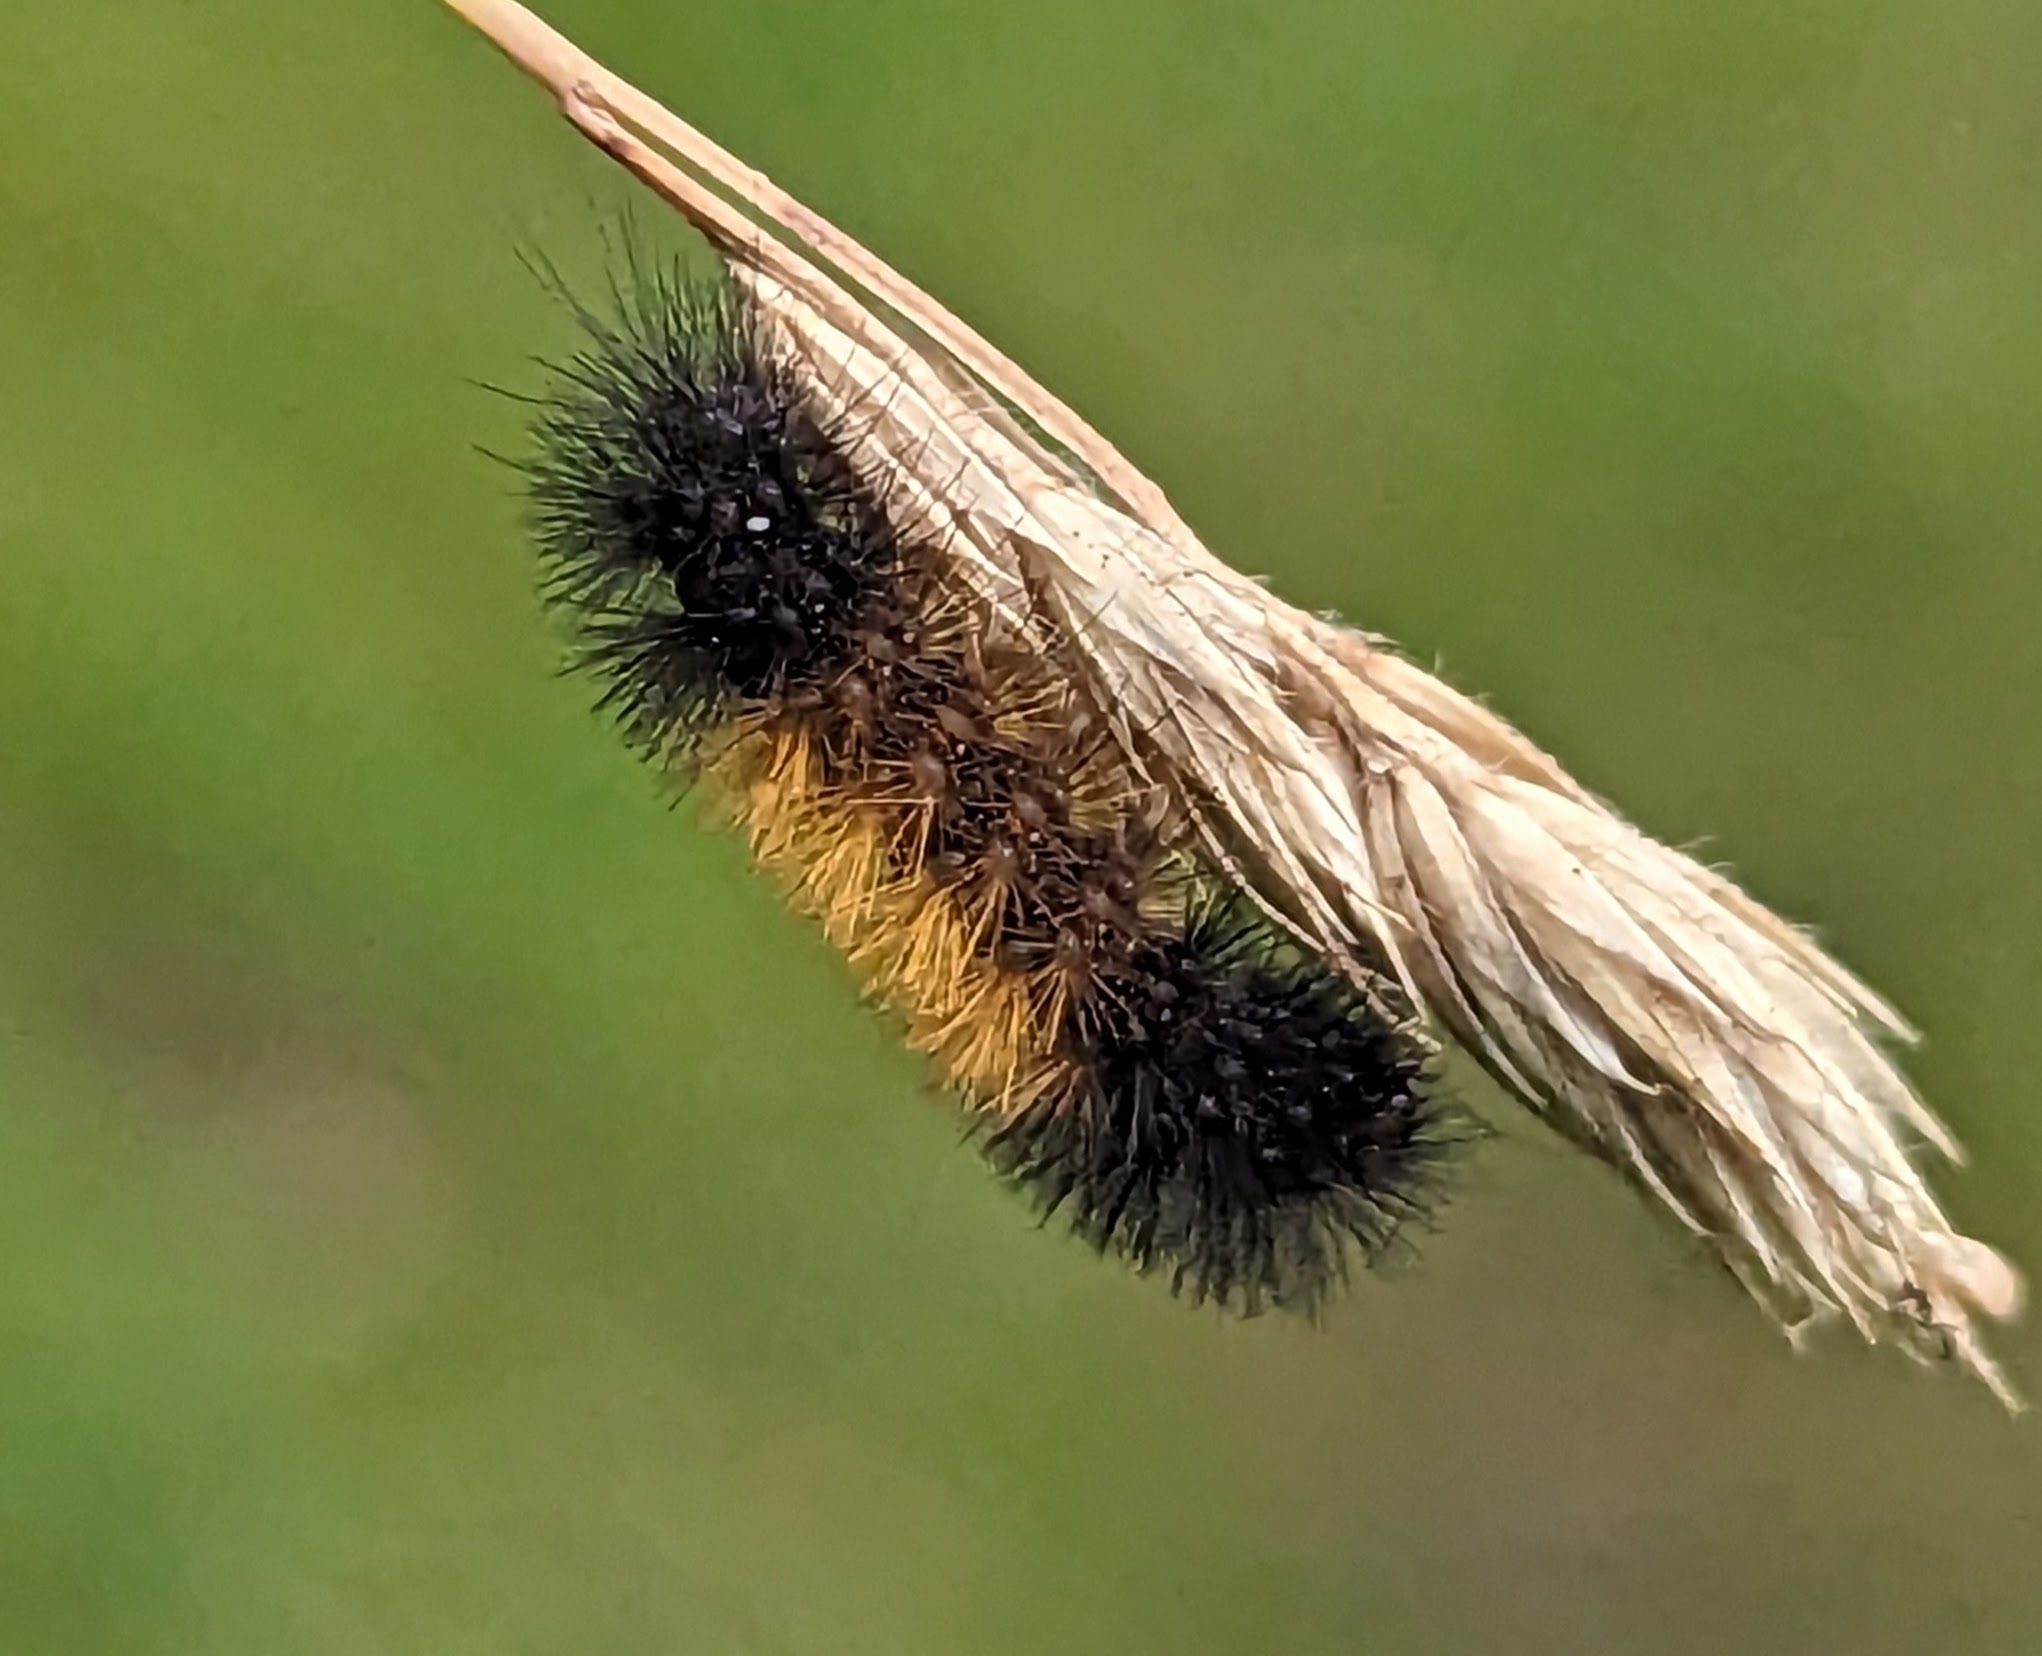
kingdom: Animalia
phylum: Arthropoda
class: Insecta
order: Lepidoptera
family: Erebidae
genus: Pyrrharctia
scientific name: Pyrrharctia isabella
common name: Isabella tiger moth
